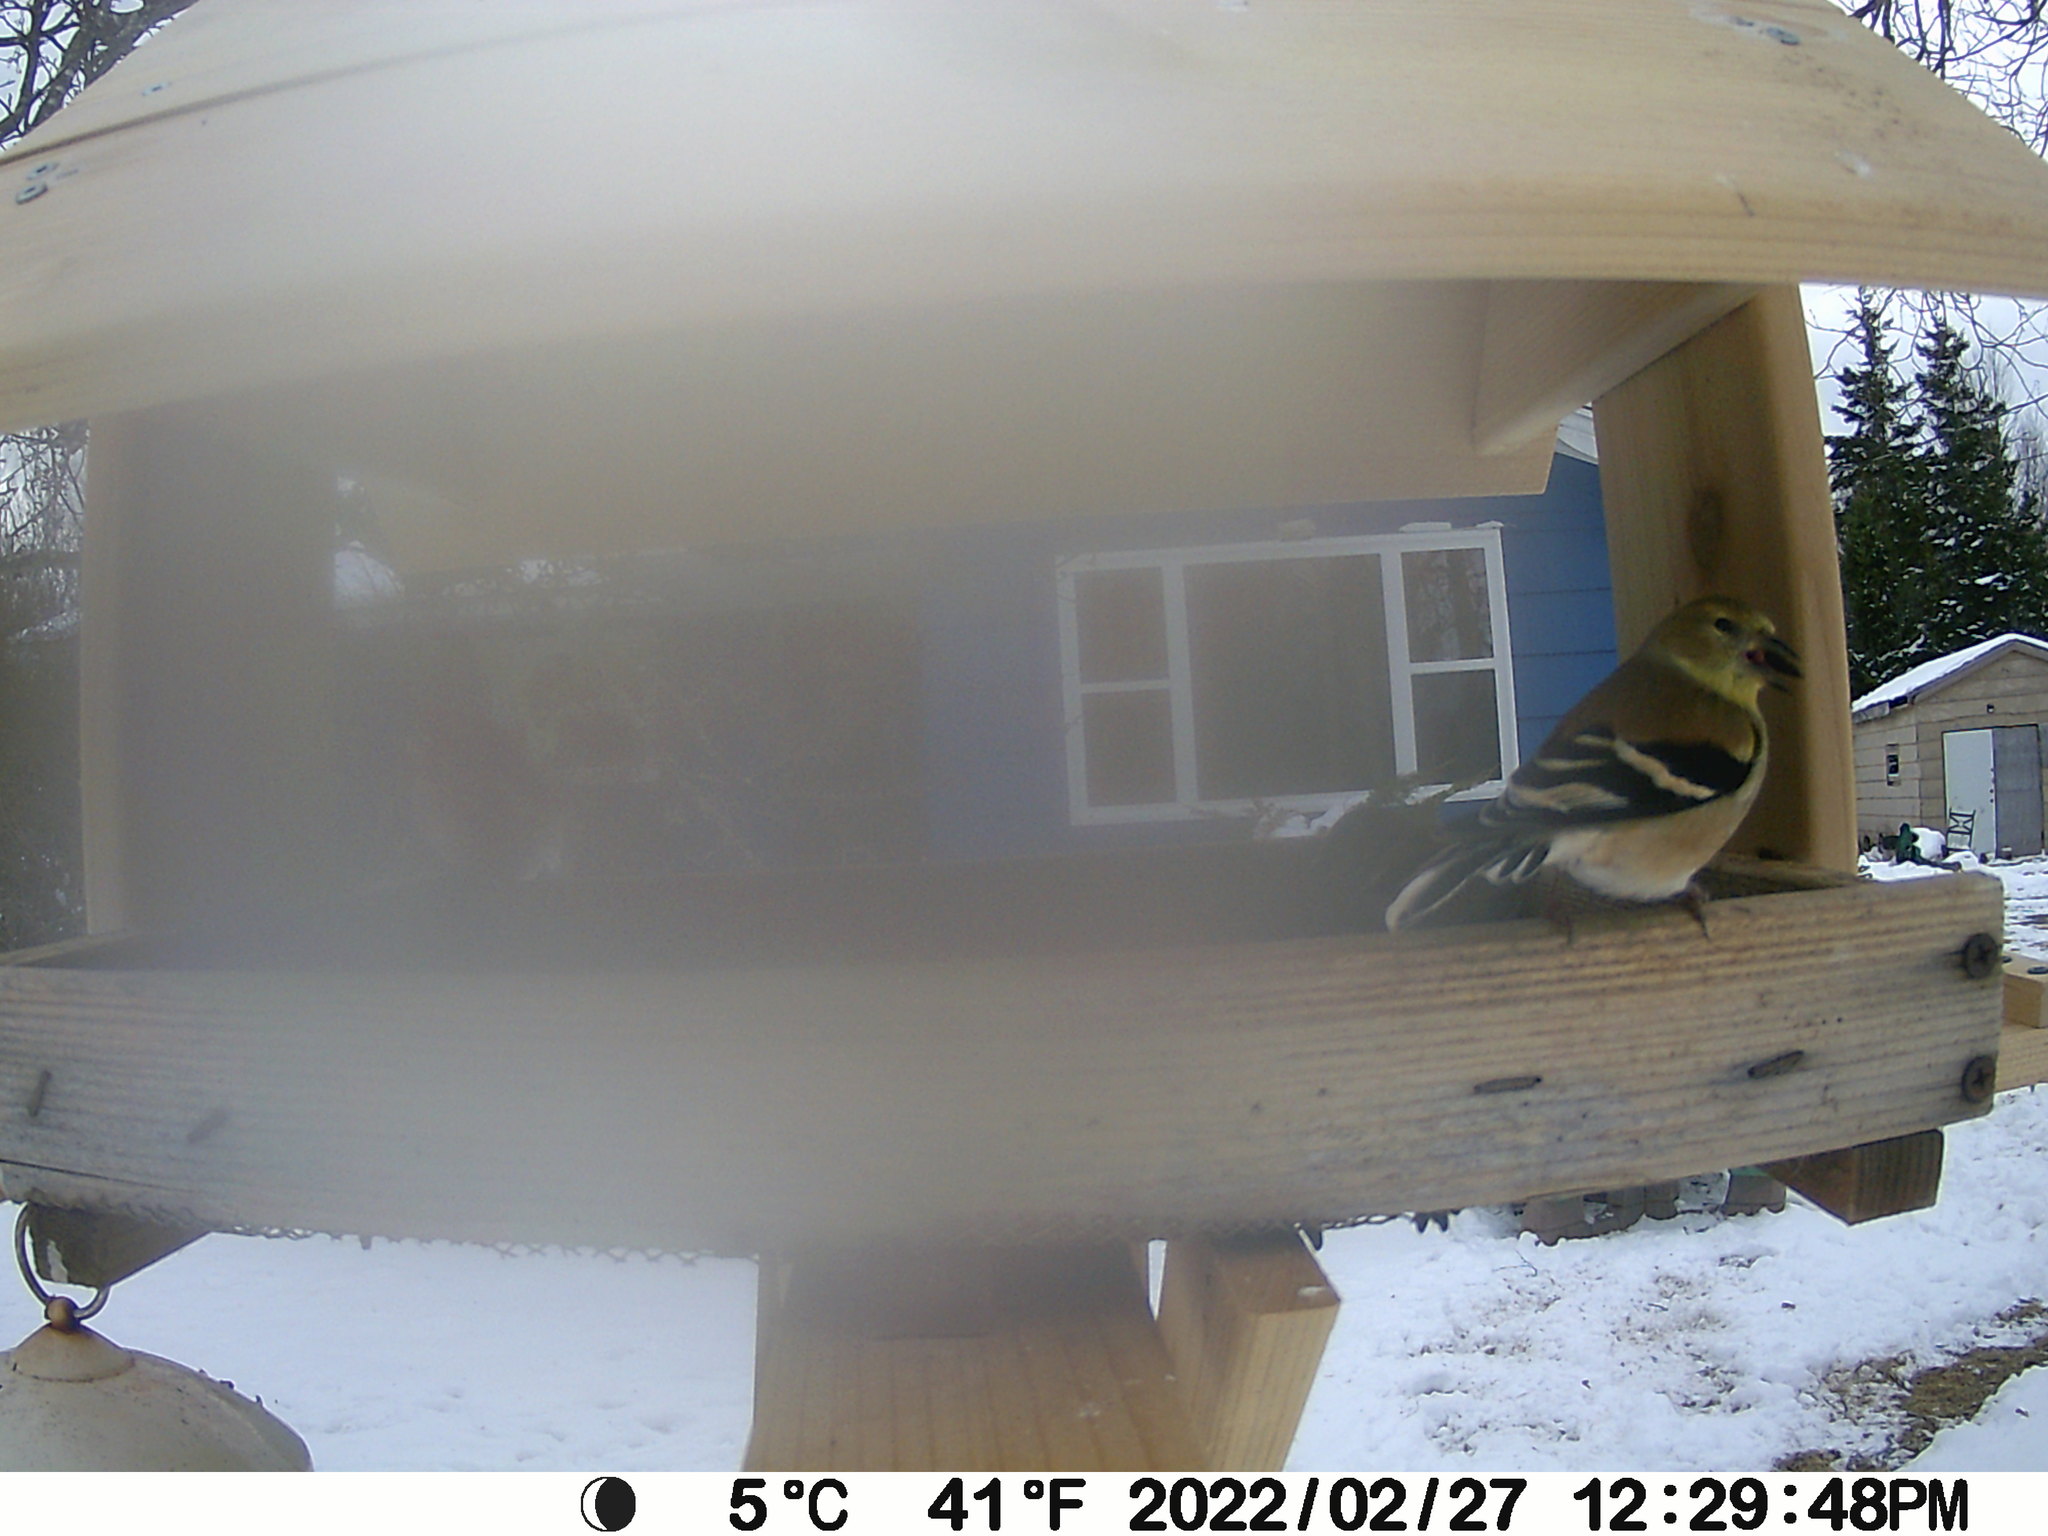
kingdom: Animalia
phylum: Chordata
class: Aves
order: Passeriformes
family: Fringillidae
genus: Spinus
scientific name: Spinus tristis
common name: American goldfinch
